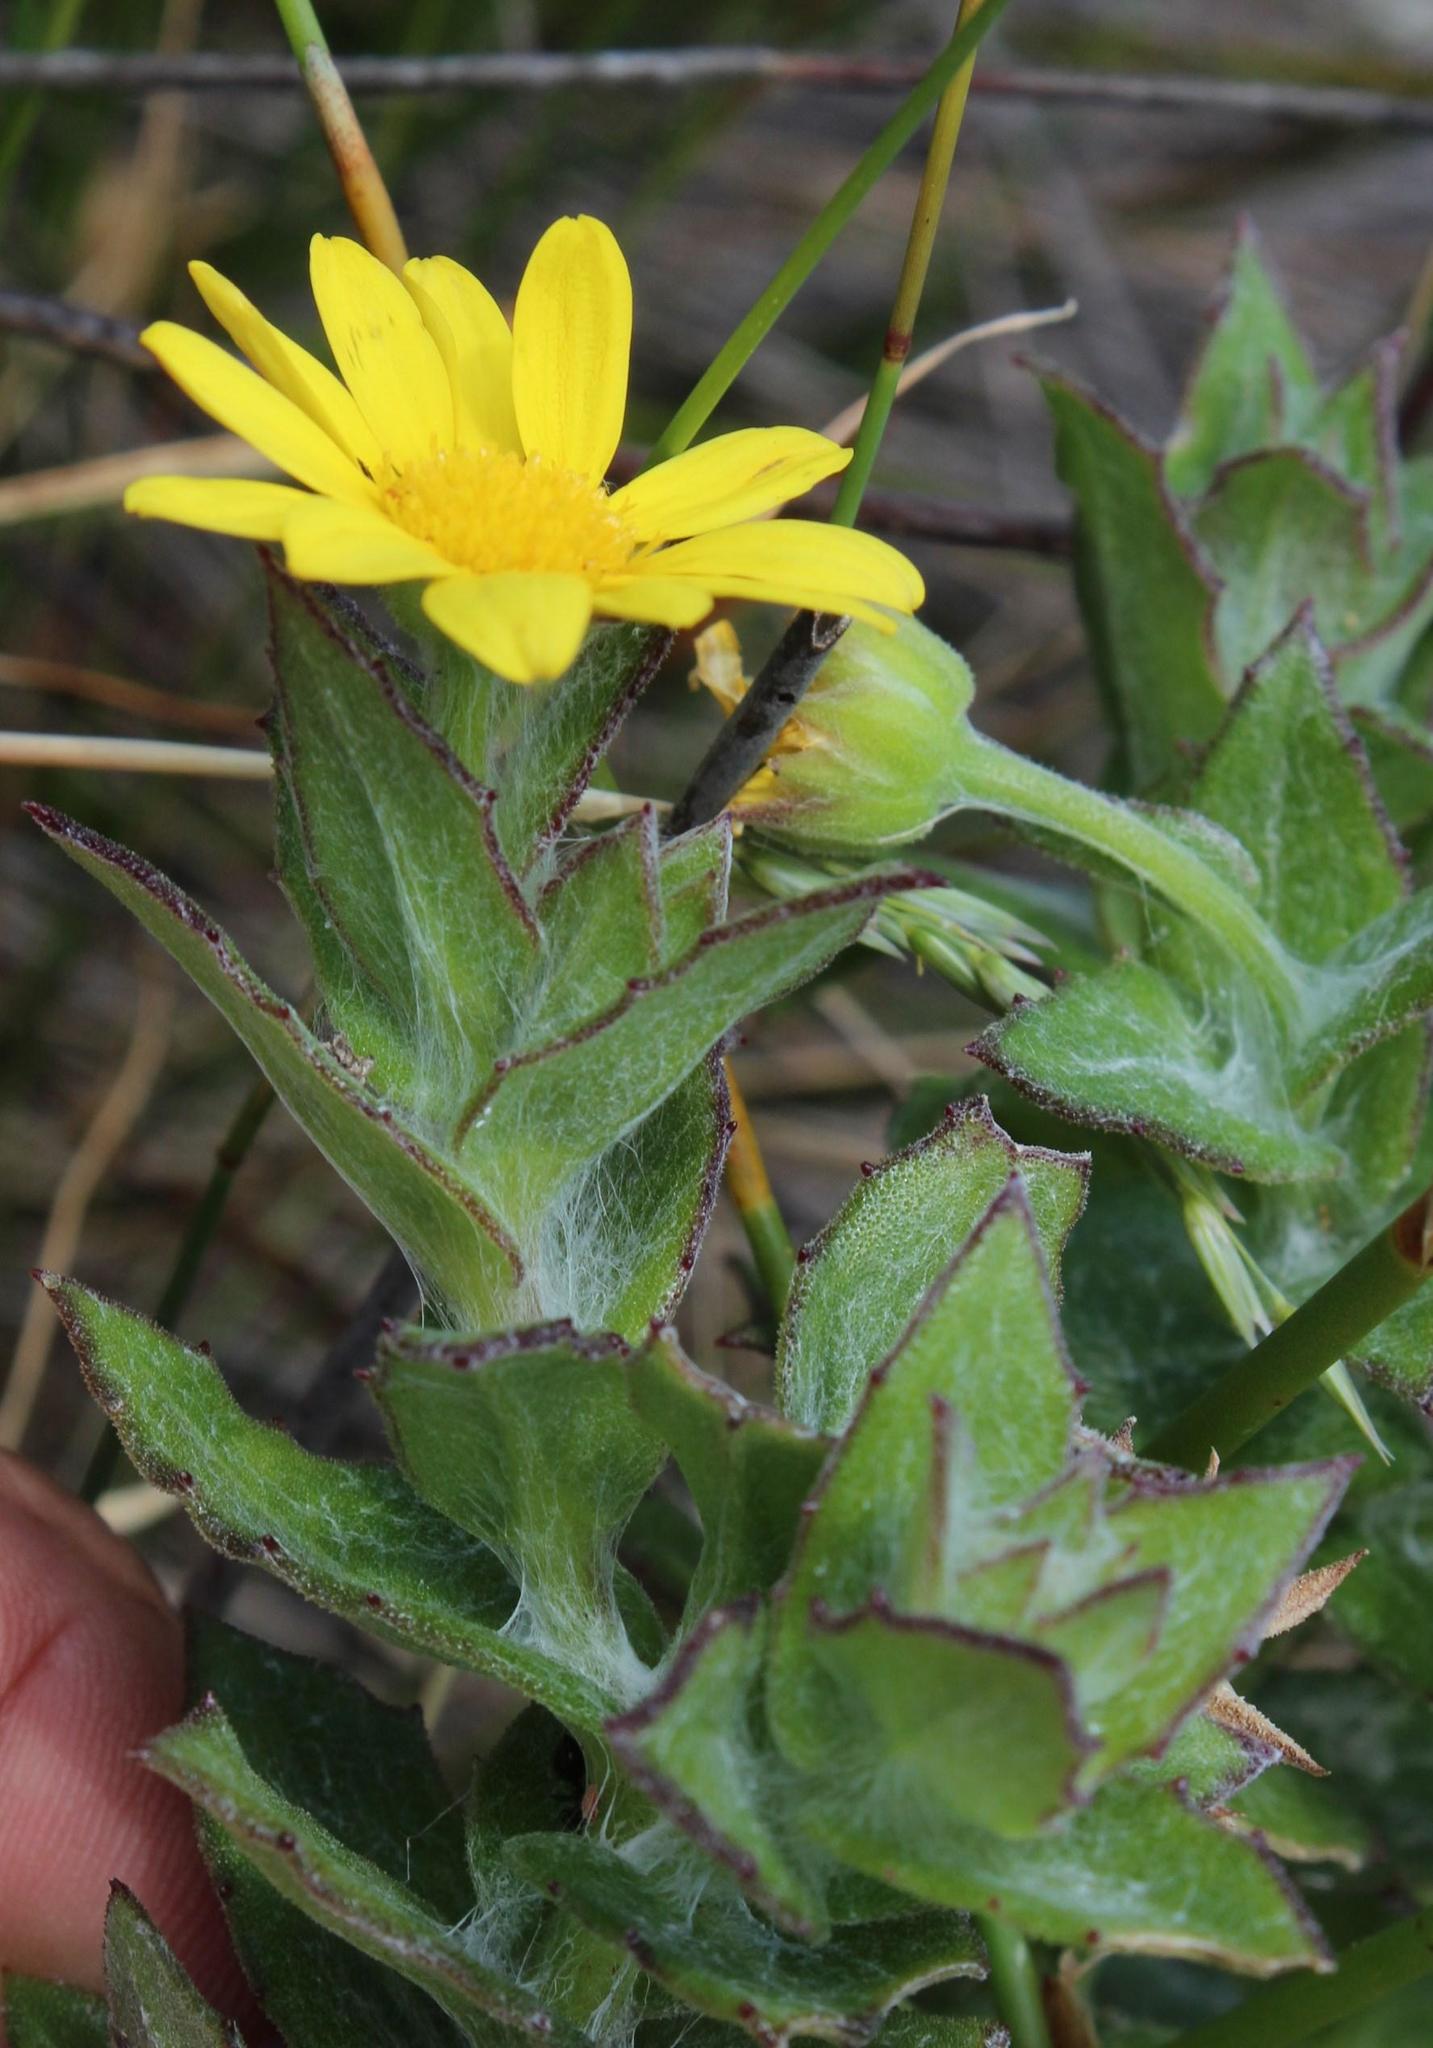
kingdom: Plantae
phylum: Tracheophyta
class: Magnoliopsida
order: Asterales
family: Asteraceae
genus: Osteospermum
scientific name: Osteospermum ilicifolium
